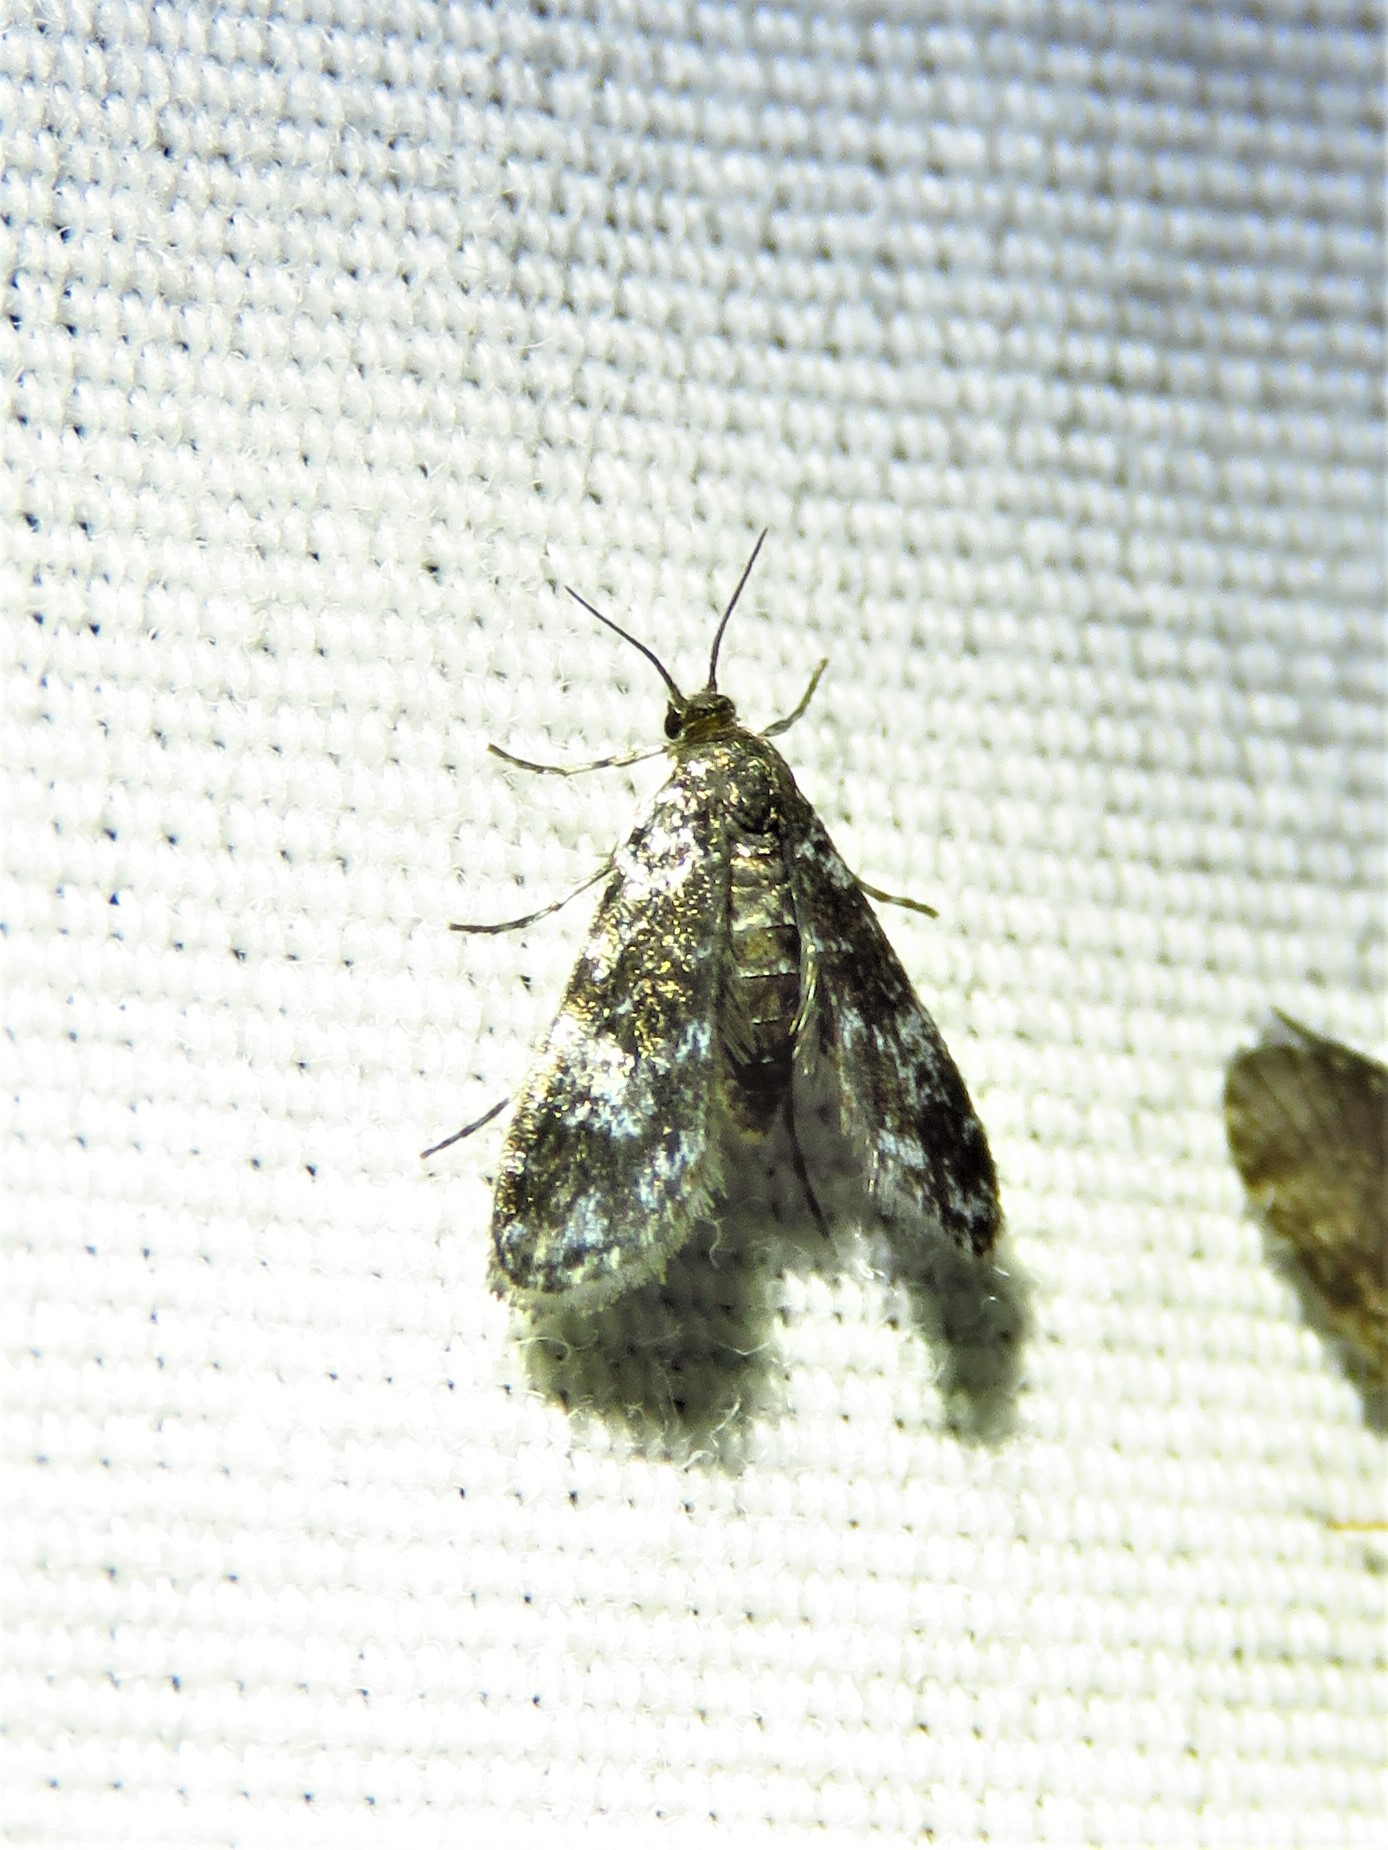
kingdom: Animalia
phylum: Arthropoda
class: Insecta
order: Lepidoptera
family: Crambidae
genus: Elophila
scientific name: Elophila tinealis
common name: Black duckweed moth
